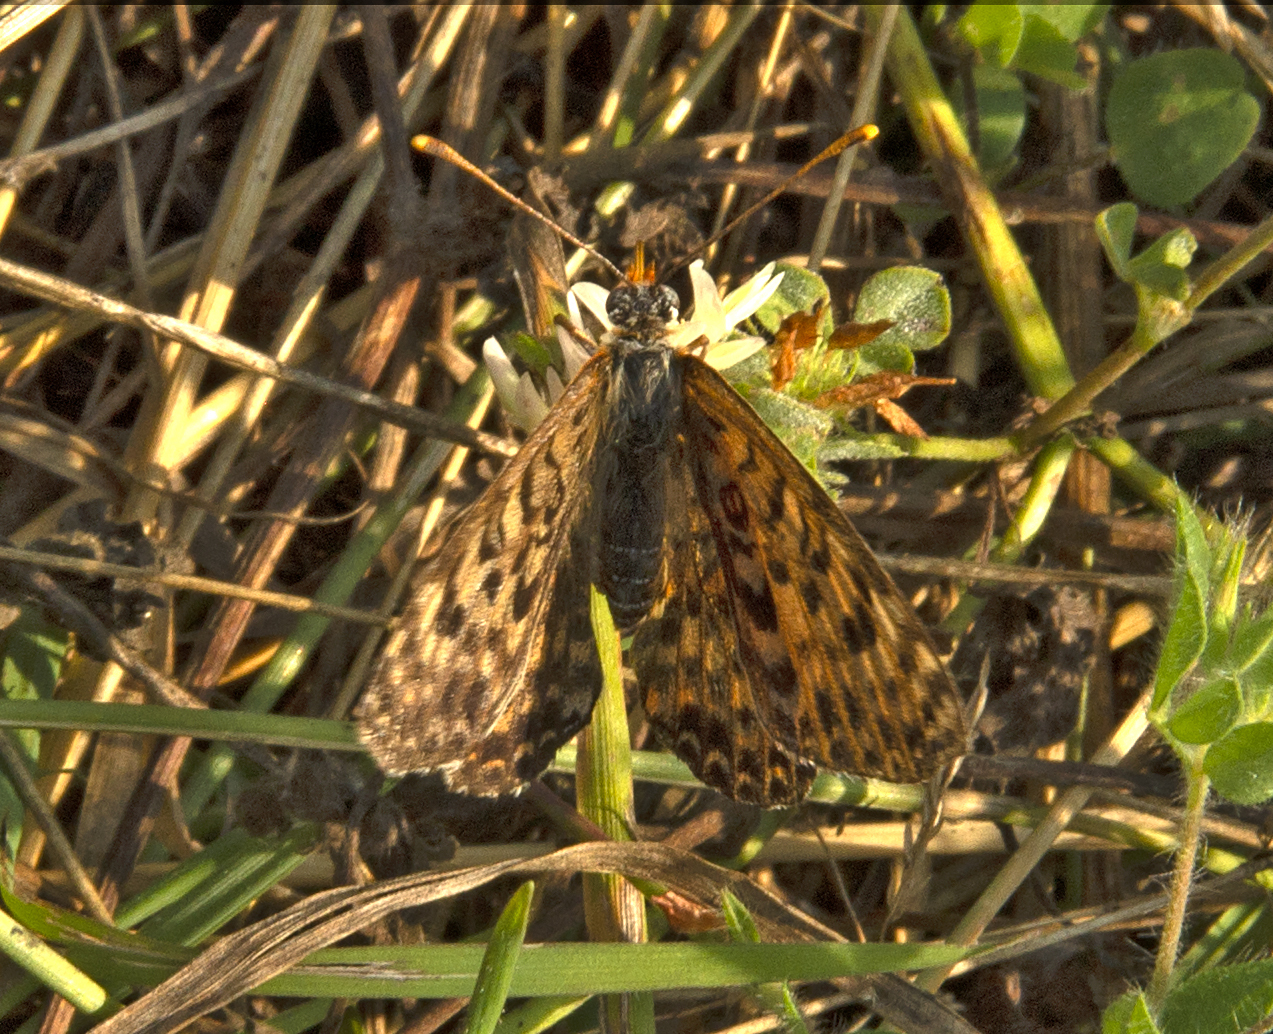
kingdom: Animalia
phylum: Arthropoda
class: Insecta
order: Lepidoptera
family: Nymphalidae
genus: Melitaea
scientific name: Melitaea didyma
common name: Spotted fritillary
